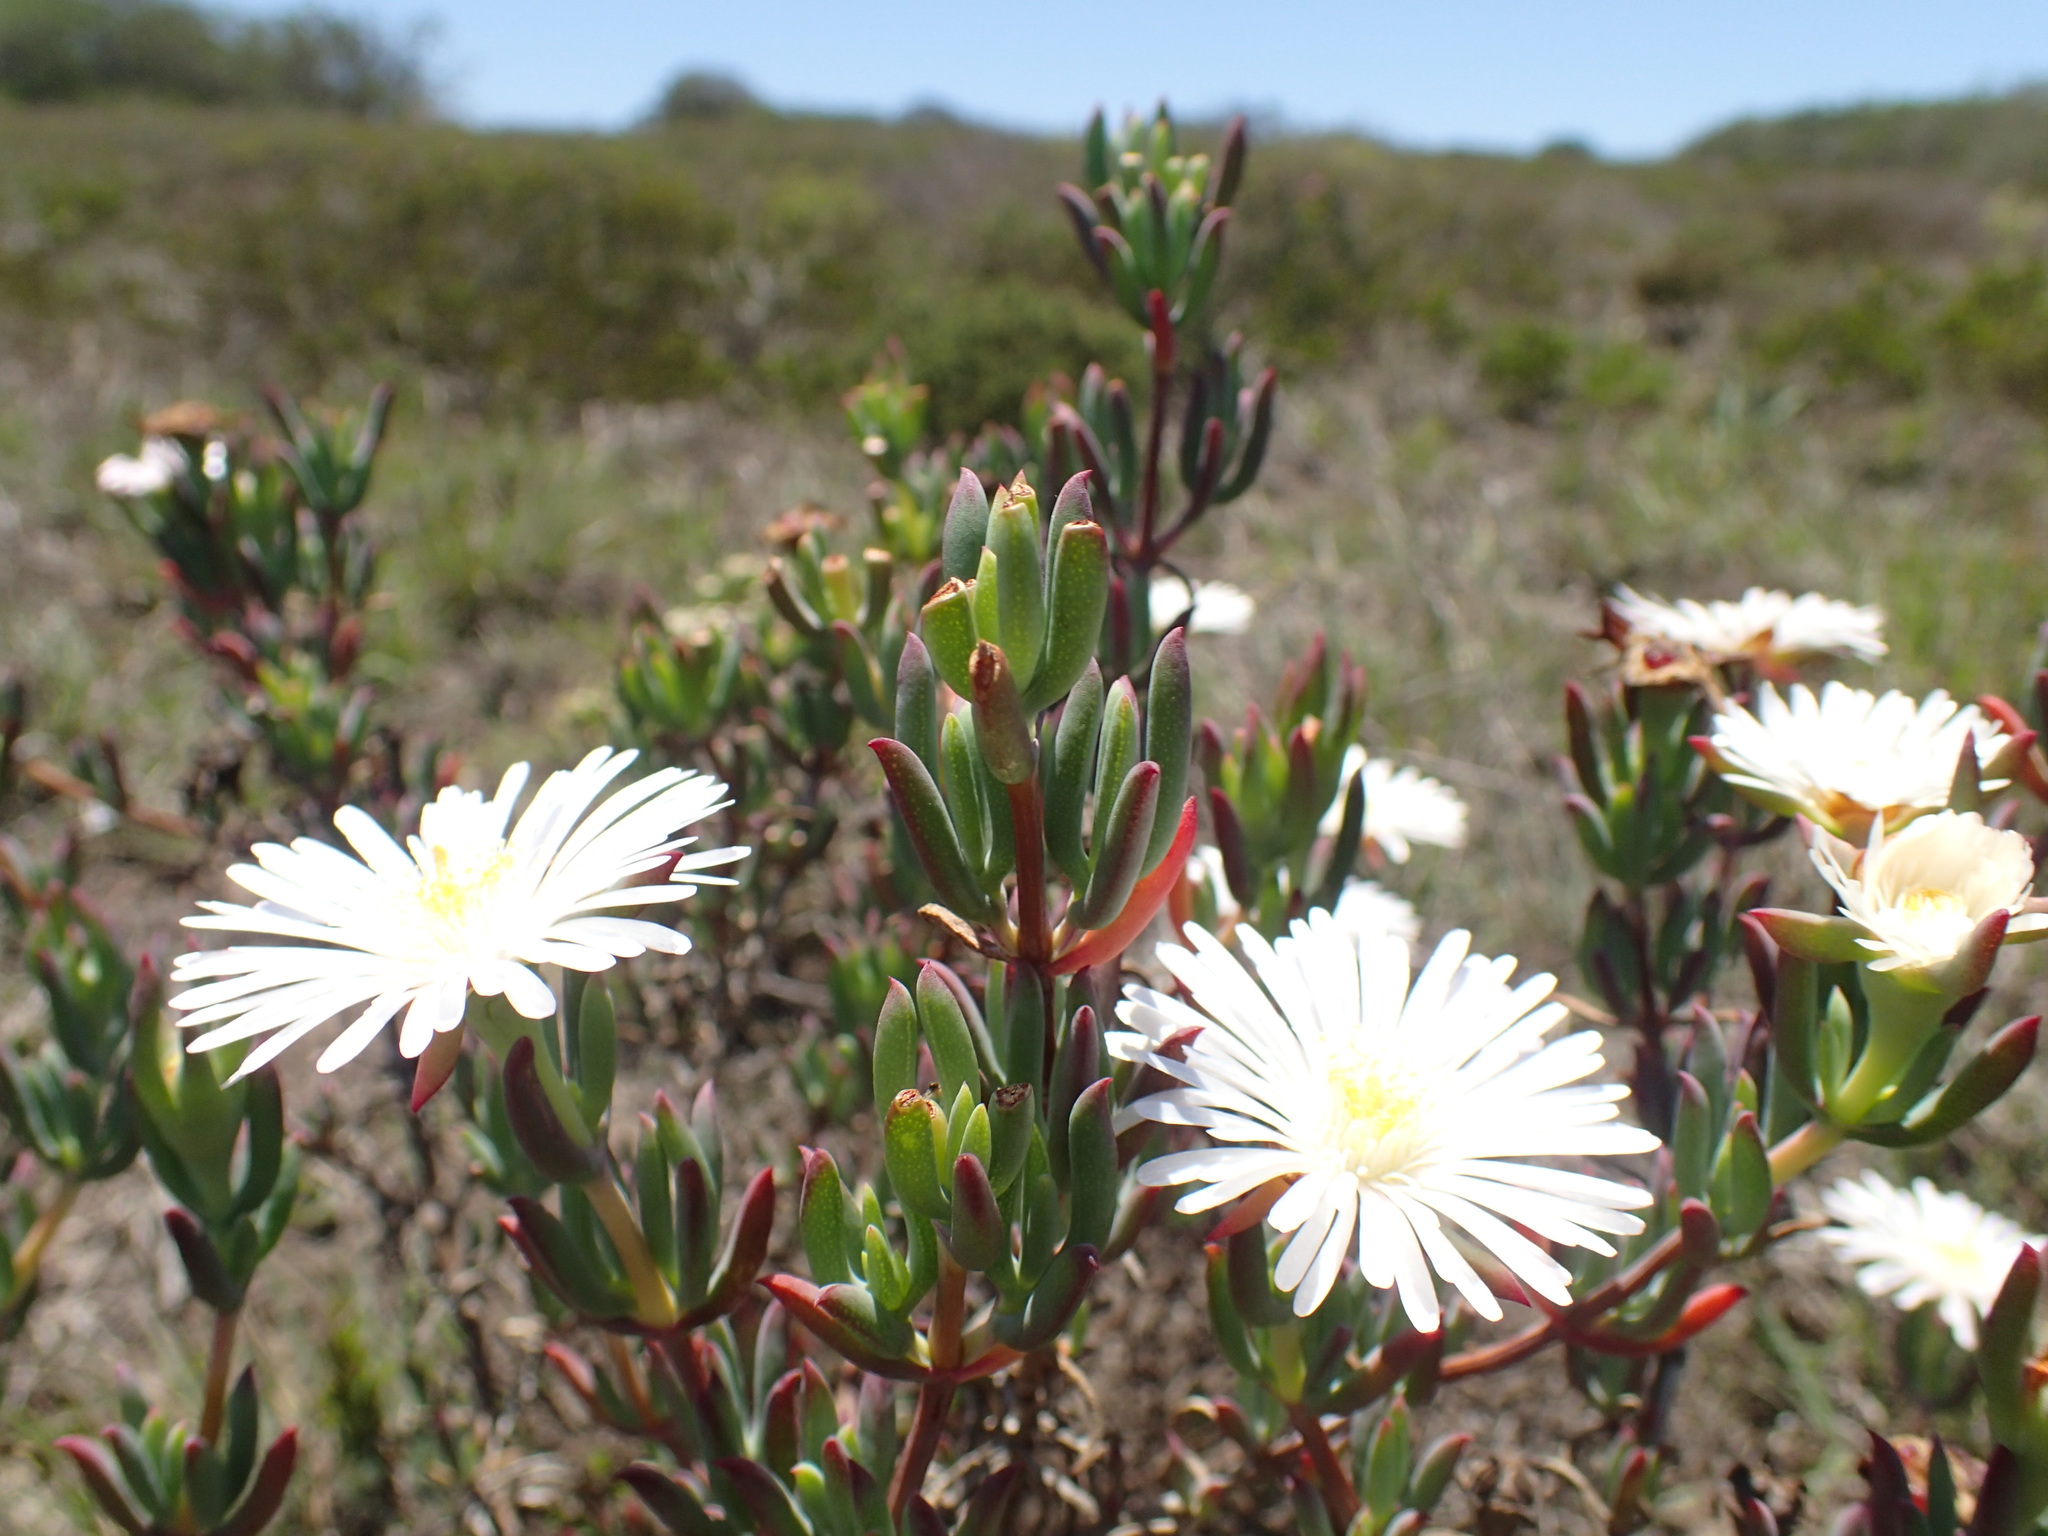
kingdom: Plantae
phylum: Tracheophyta
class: Magnoliopsida
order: Caryophyllales
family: Aizoaceae
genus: Lampranthus
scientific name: Lampranthus algoensis
